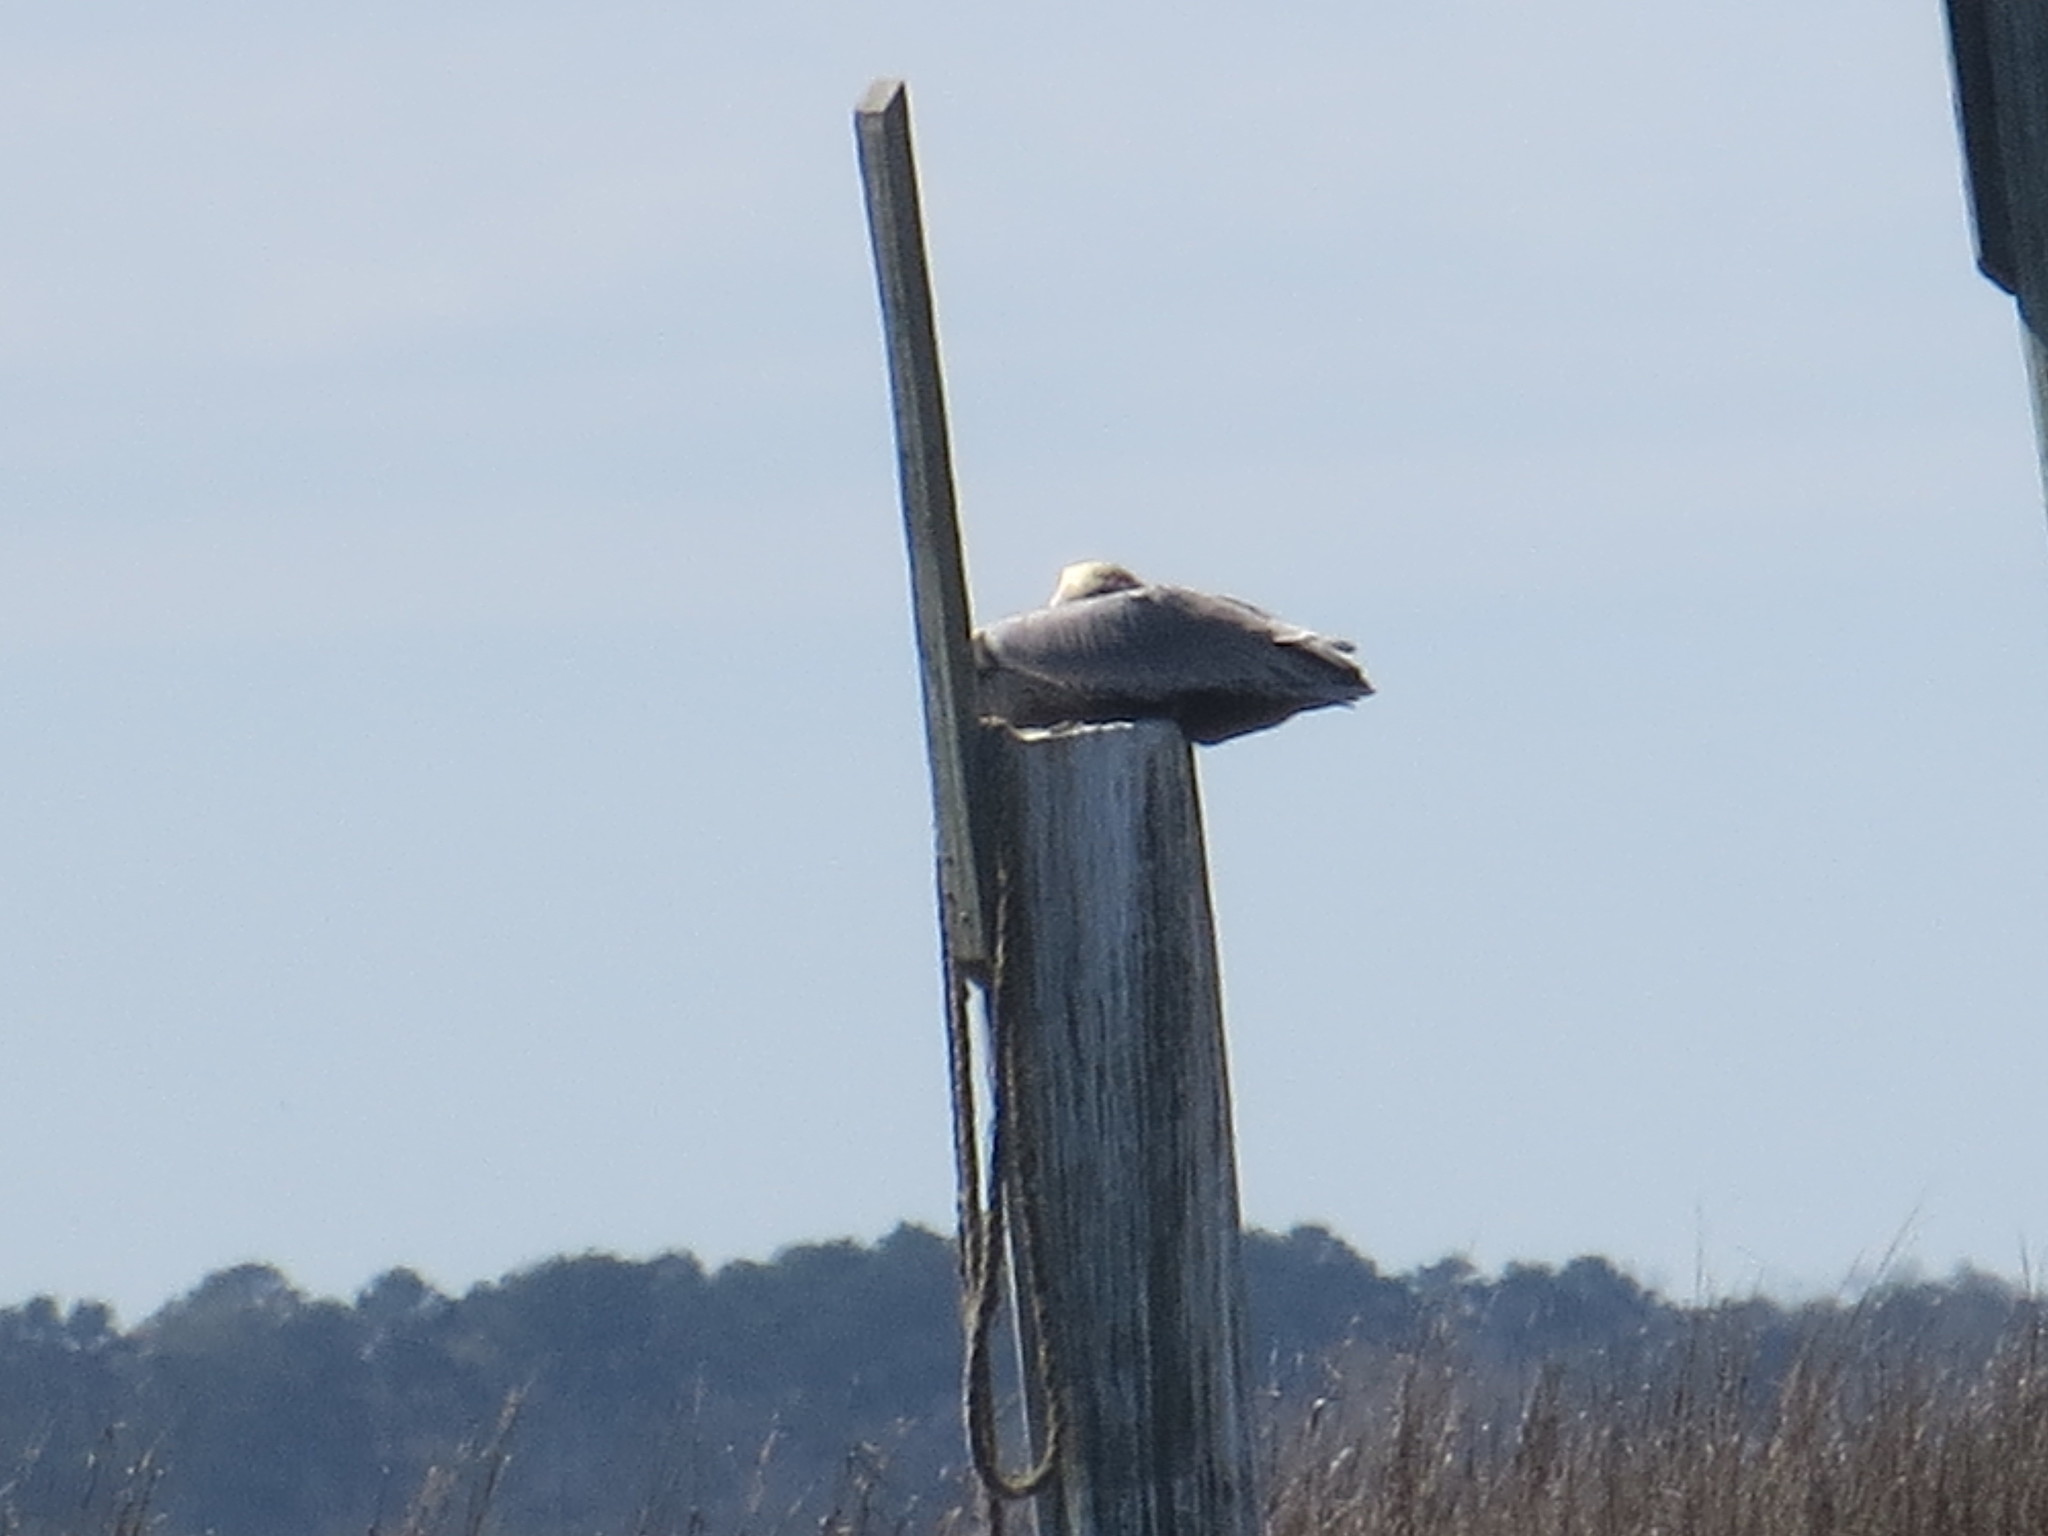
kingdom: Animalia
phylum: Chordata
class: Aves
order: Pelecaniformes
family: Pelecanidae
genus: Pelecanus
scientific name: Pelecanus occidentalis
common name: Brown pelican
